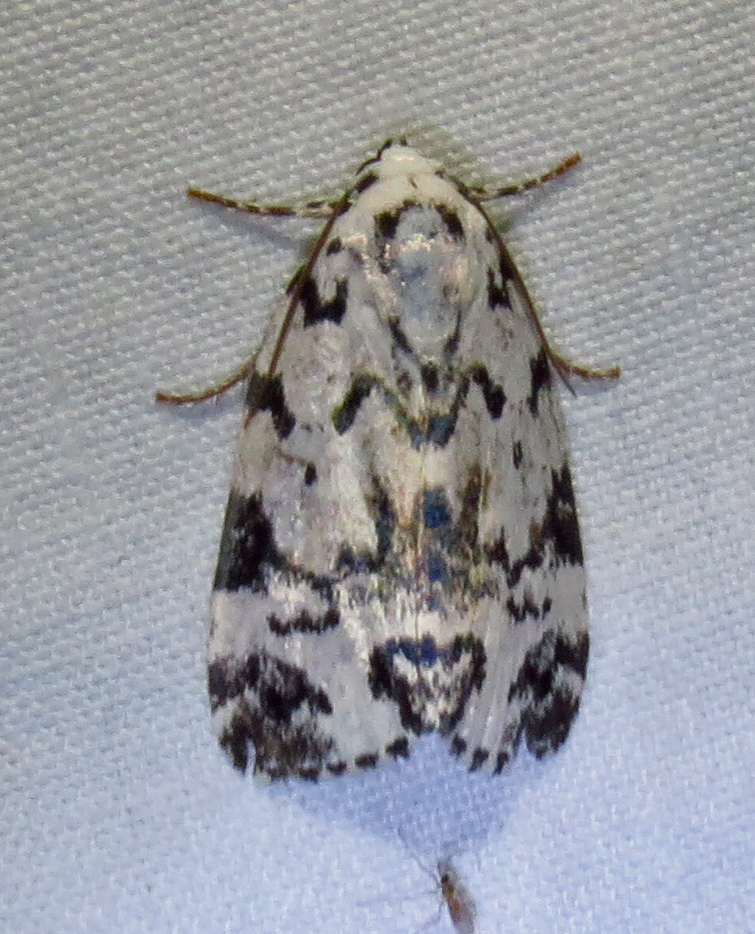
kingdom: Animalia
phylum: Arthropoda
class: Insecta
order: Lepidoptera
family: Noctuidae
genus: Polygrammate
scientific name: Polygrammate hebraeicum
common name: Hebrew moth
